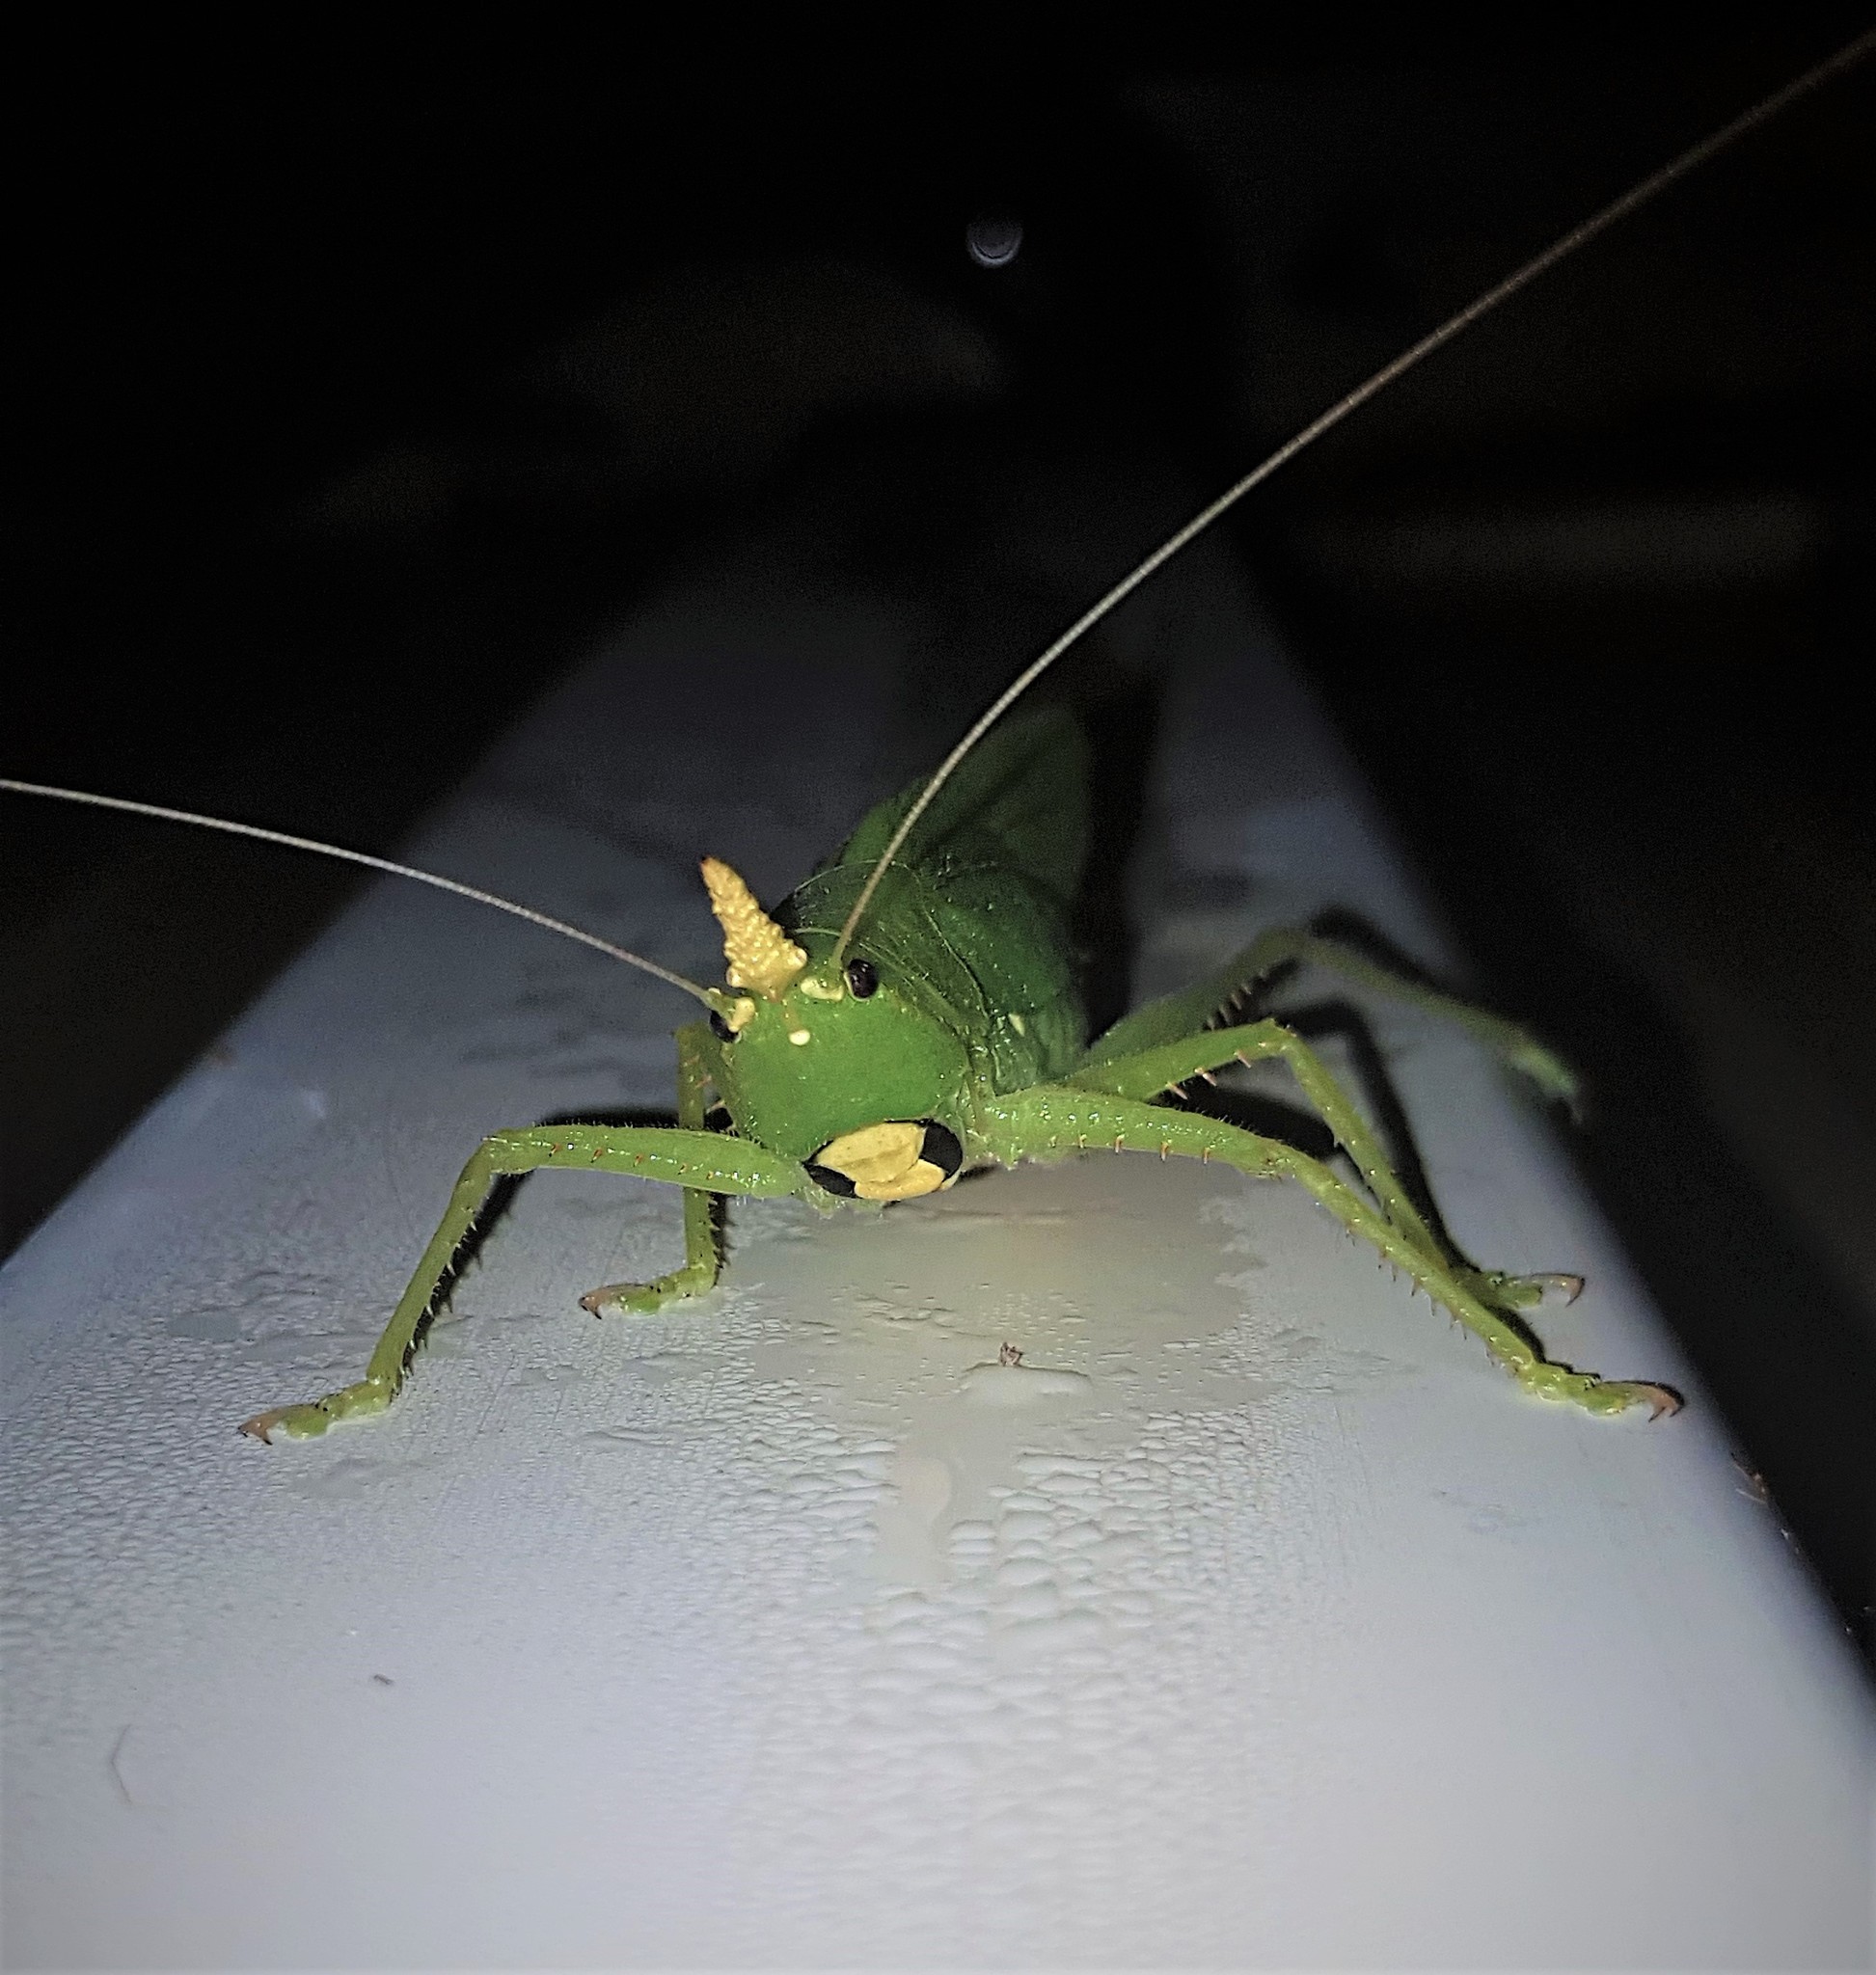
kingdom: Animalia
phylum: Arthropoda
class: Insecta
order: Orthoptera
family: Tettigoniidae
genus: Copiphora
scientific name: Copiphora cornuta
